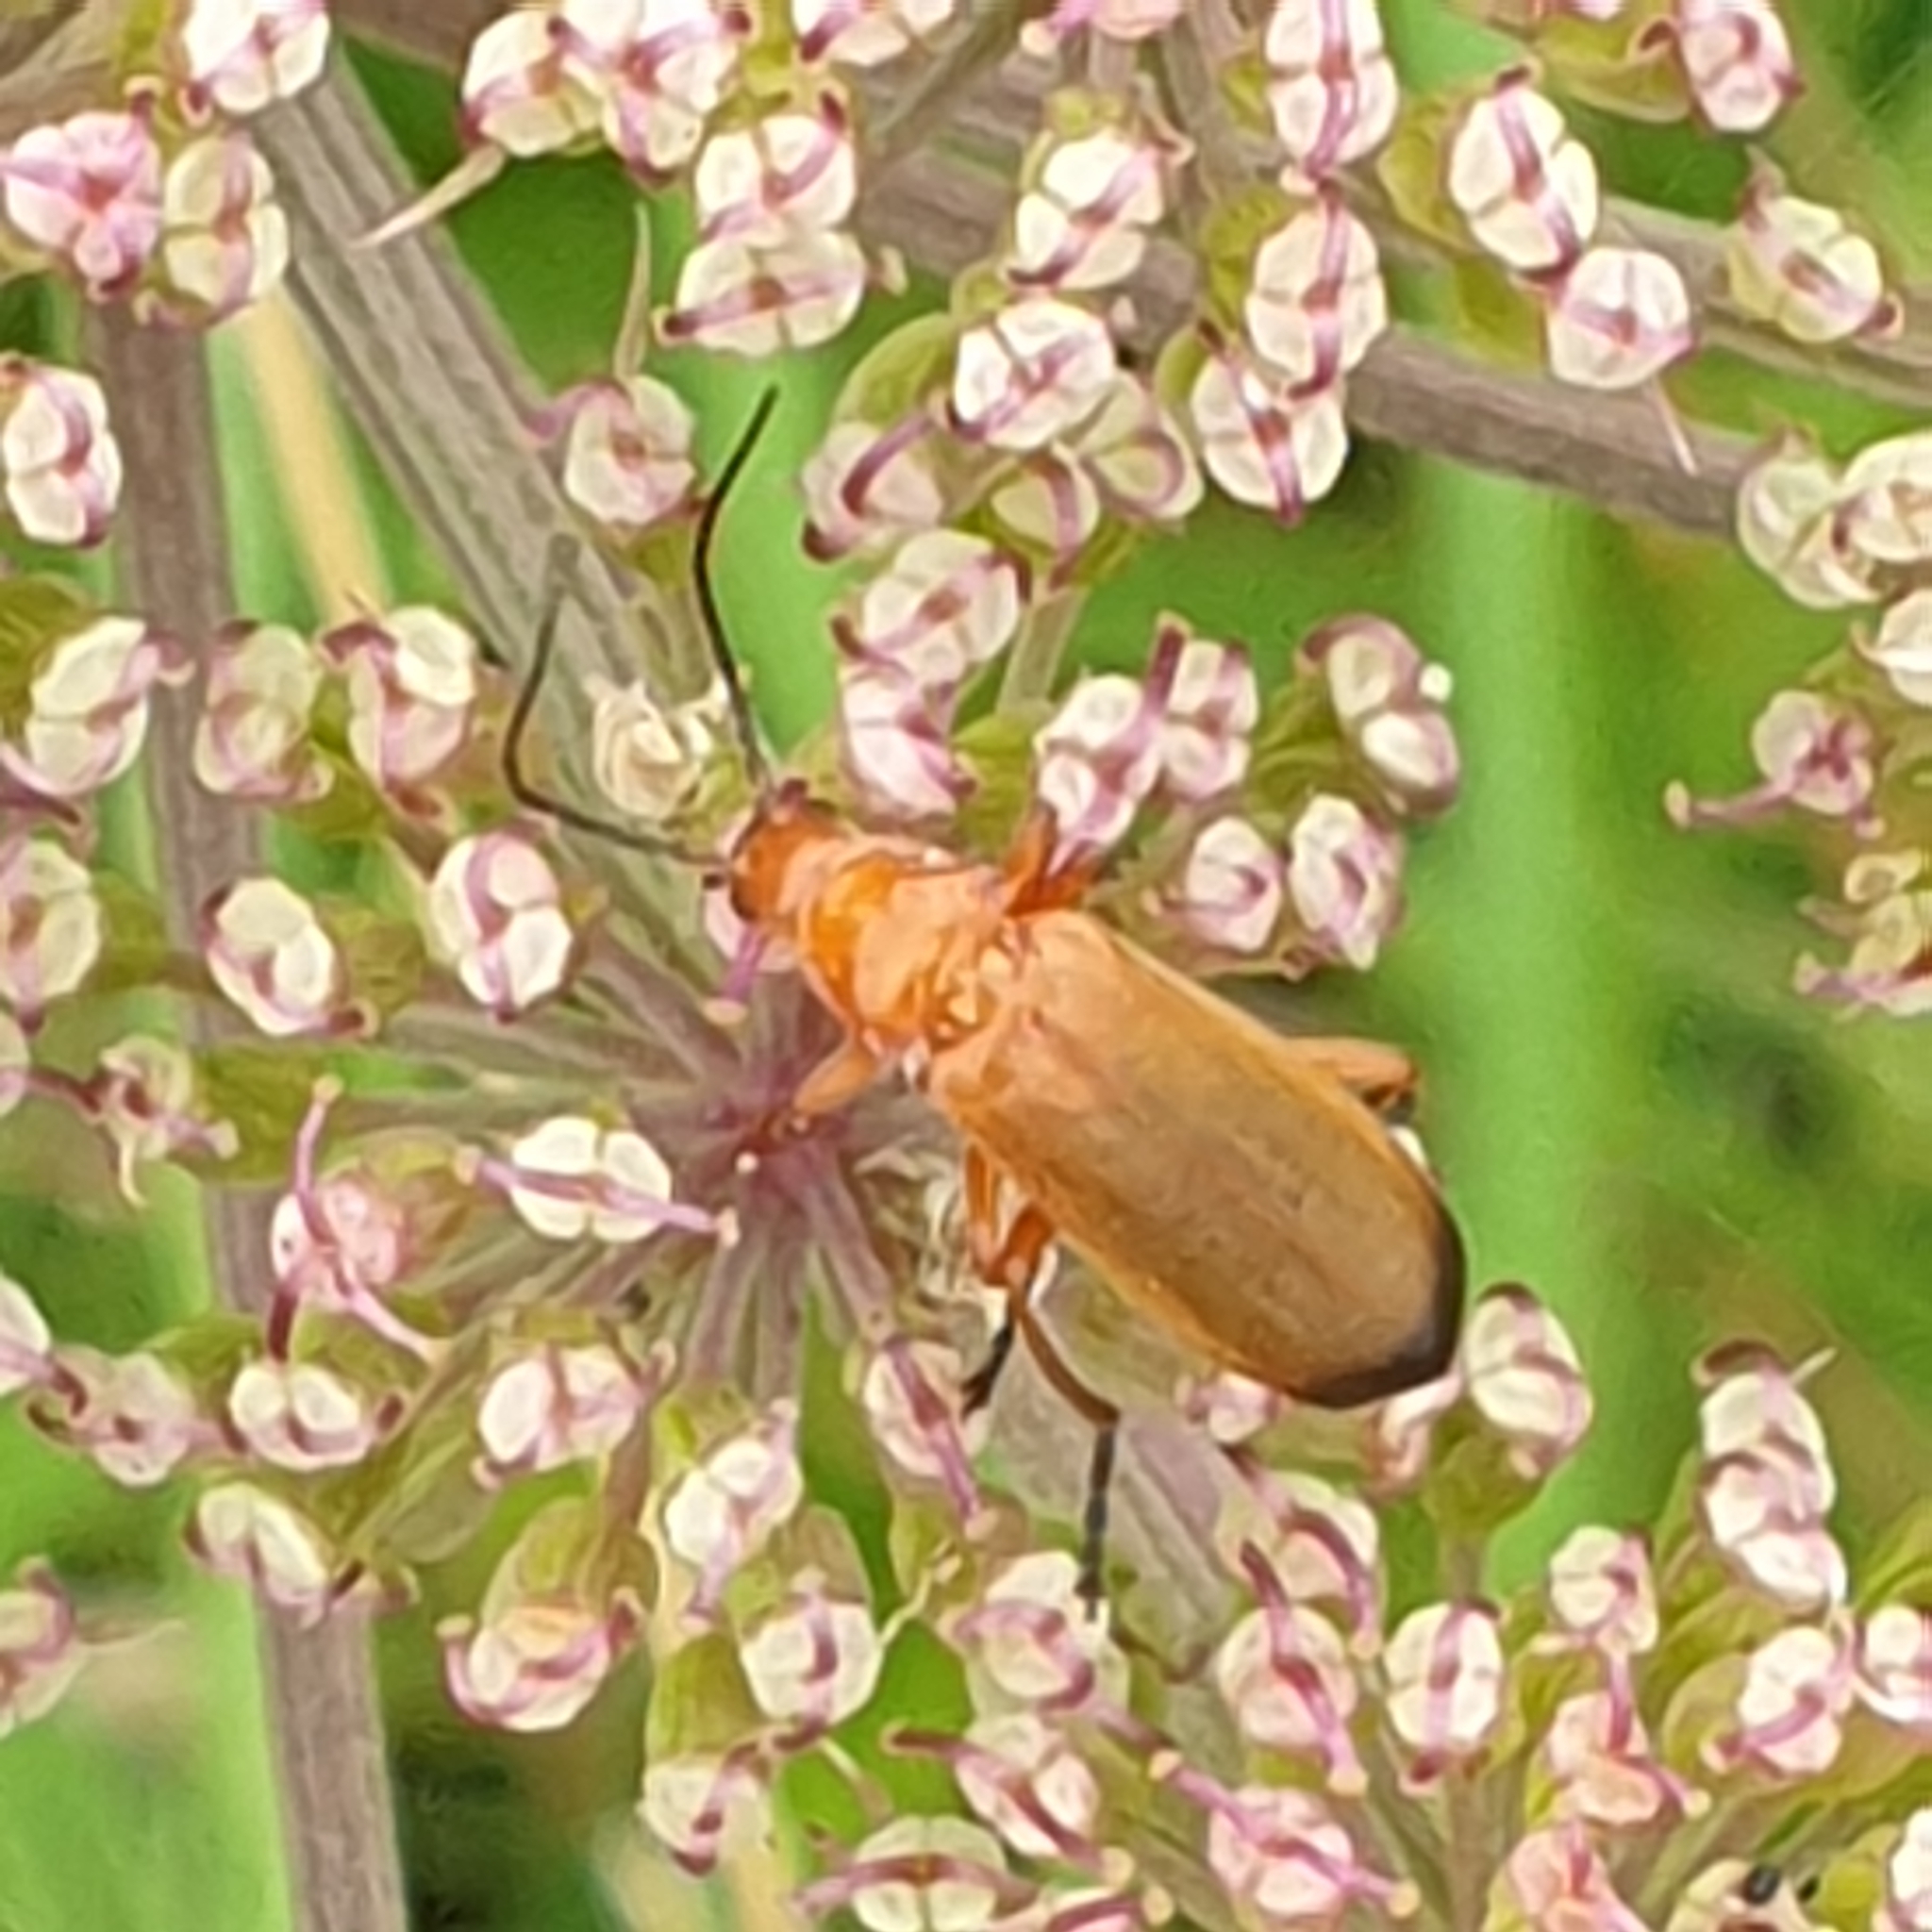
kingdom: Animalia
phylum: Arthropoda
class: Insecta
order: Coleoptera
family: Cantharidae
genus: Rhagonycha
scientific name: Rhagonycha fulva
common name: Common red soldier beetle
